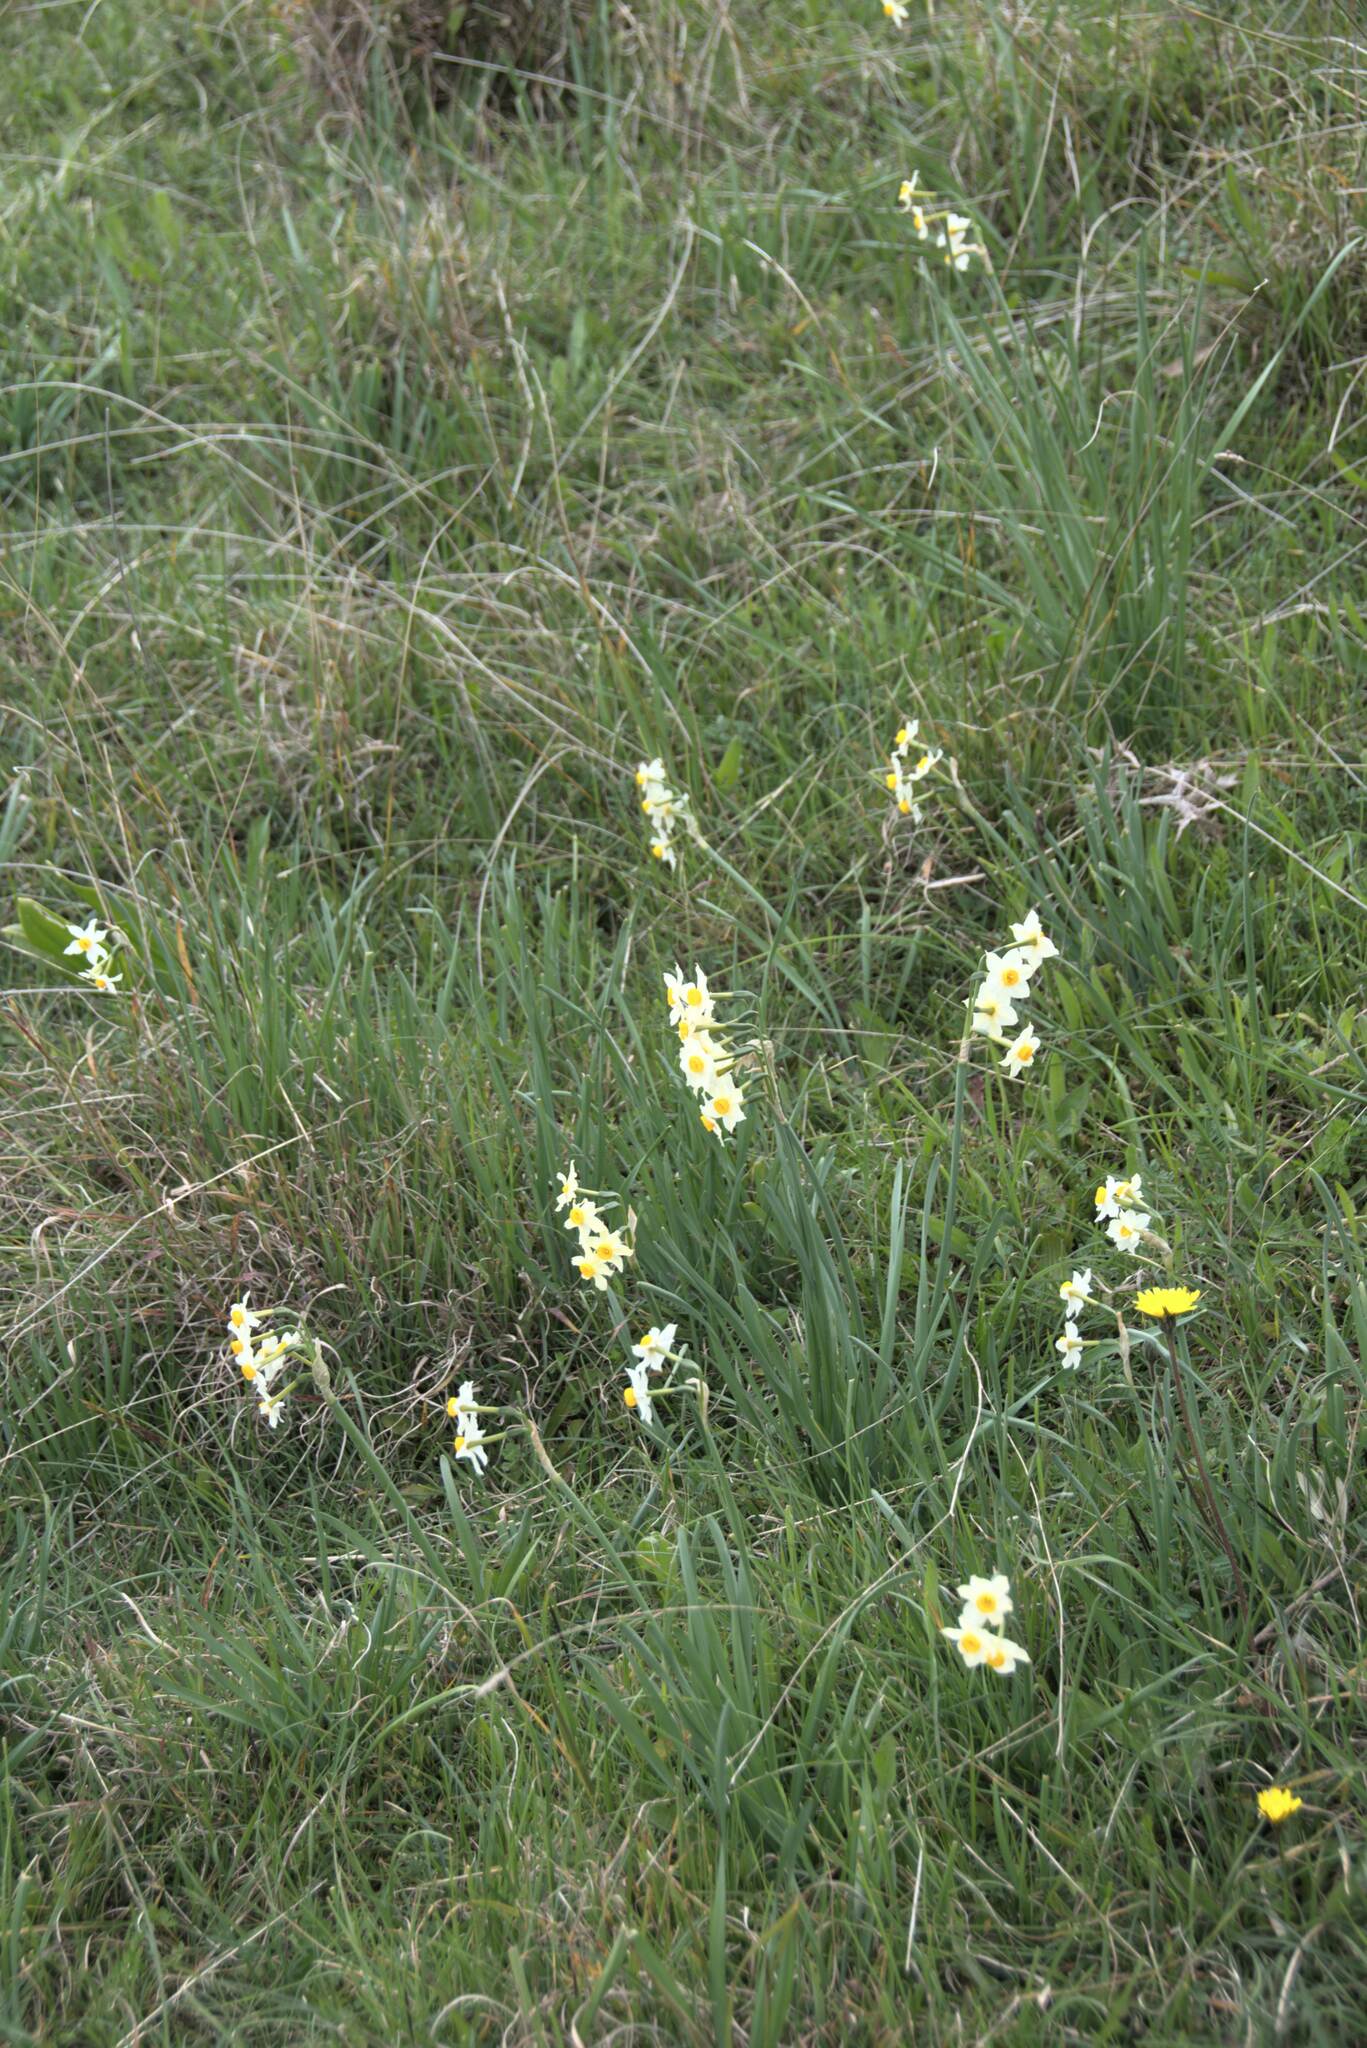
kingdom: Plantae
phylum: Tracheophyta
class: Liliopsida
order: Asparagales
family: Amaryllidaceae
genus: Narcissus
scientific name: Narcissus tazetta
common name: Bunch-flowered daffodil
